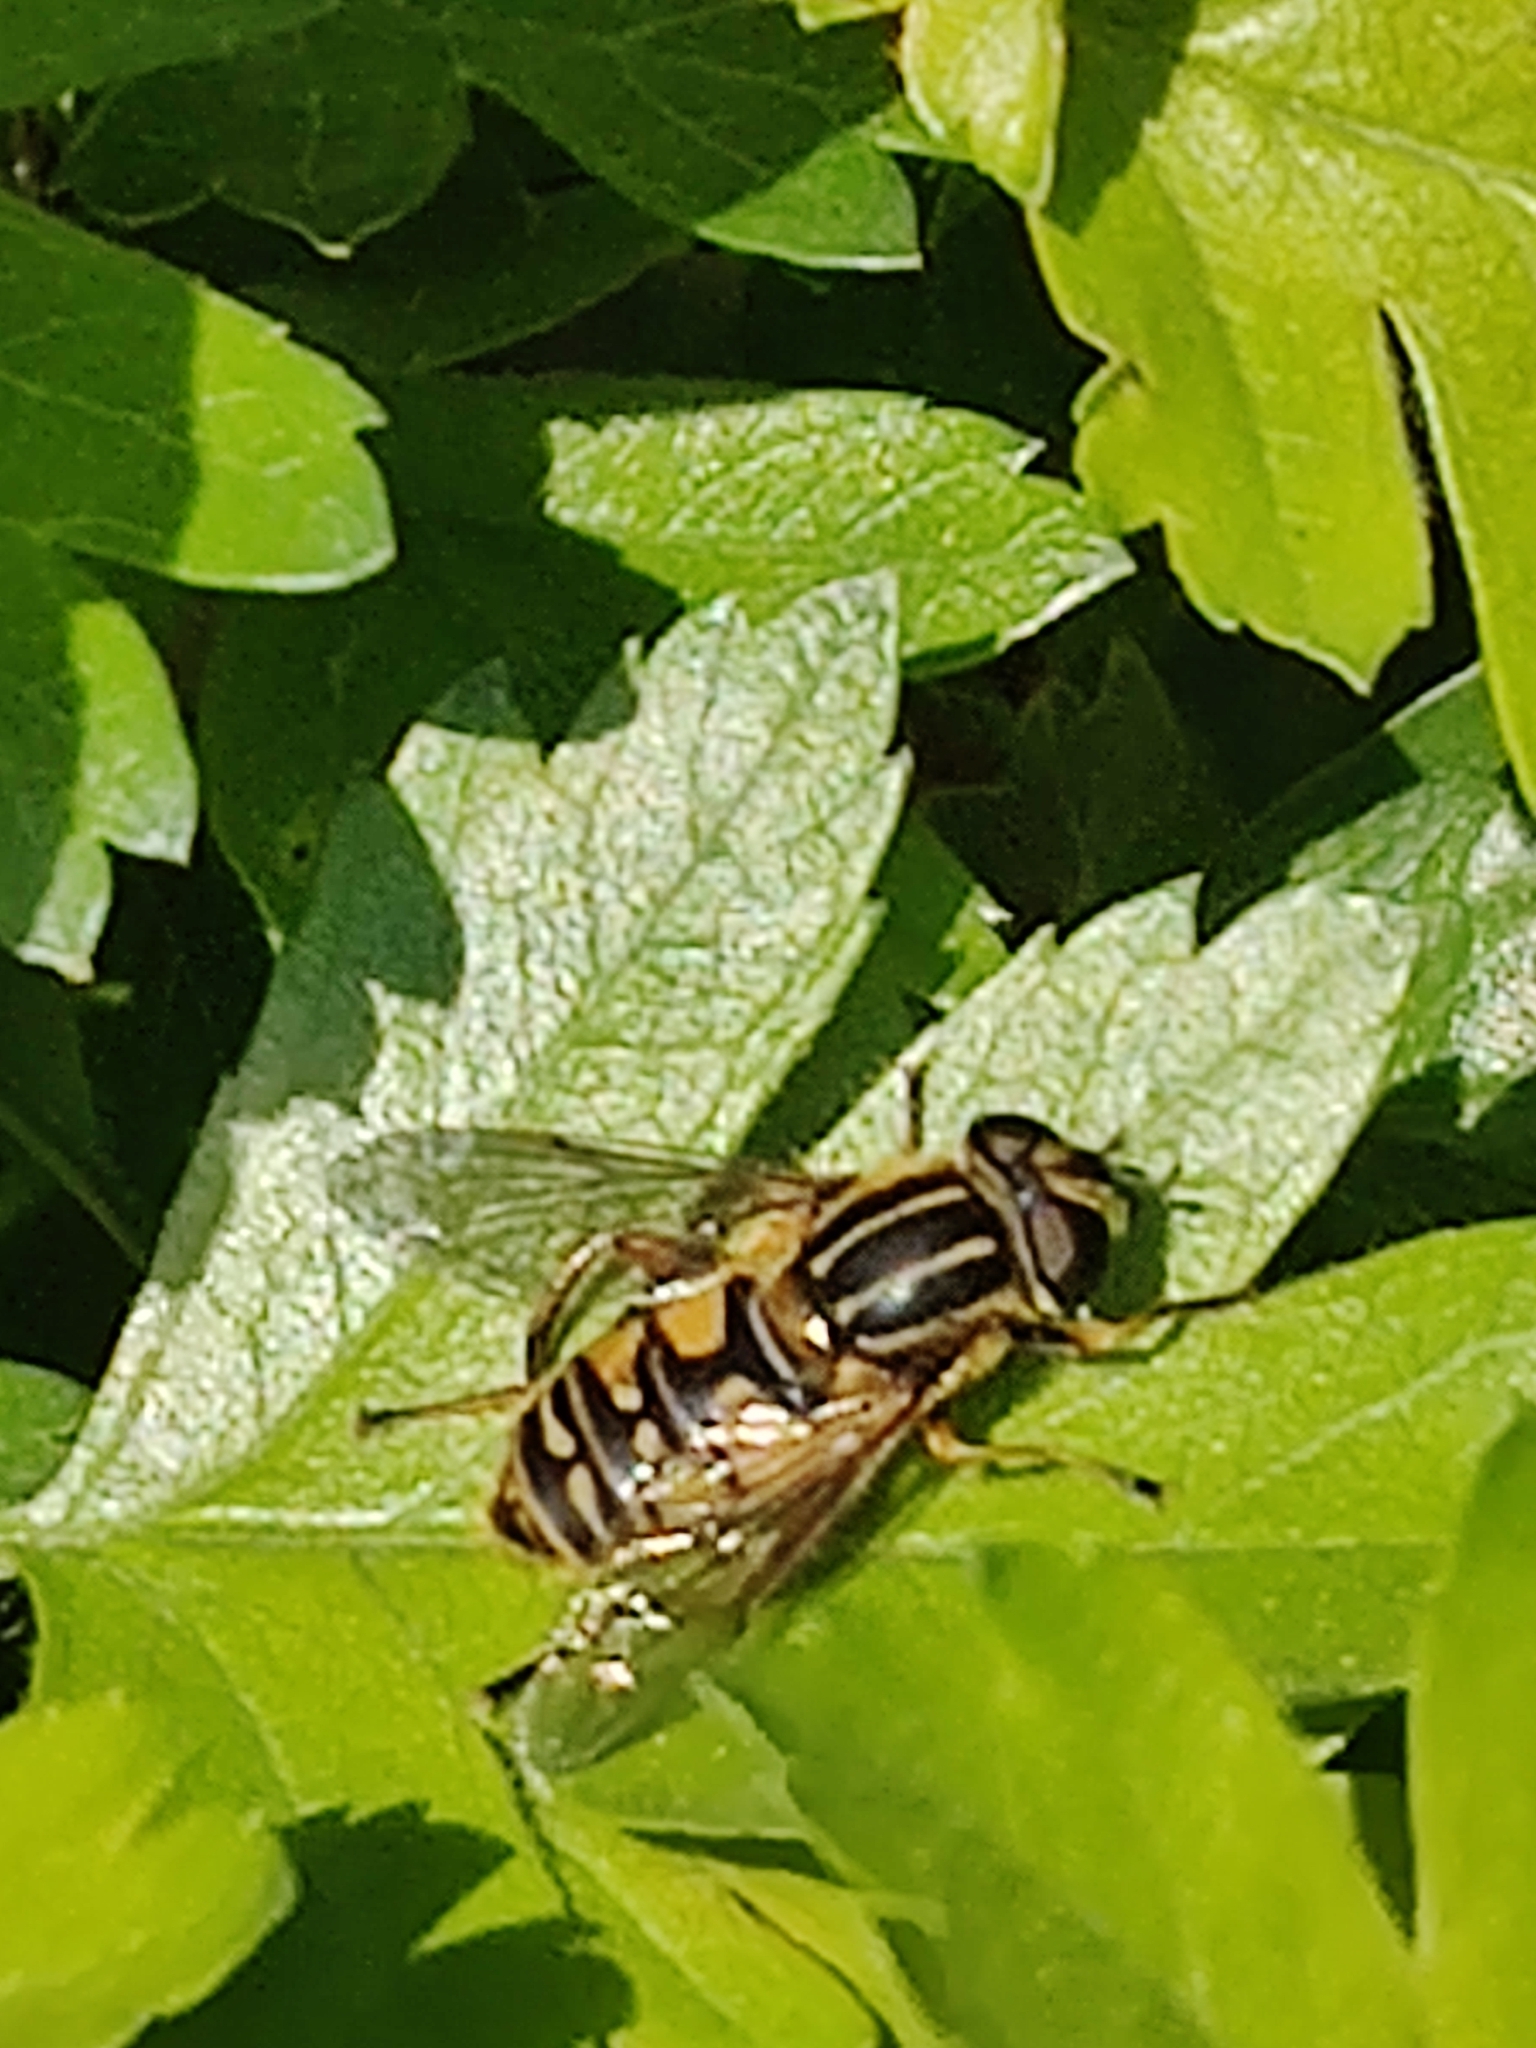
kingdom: Animalia
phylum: Arthropoda
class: Insecta
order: Diptera
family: Syrphidae
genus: Helophilus
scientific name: Helophilus pendulus
